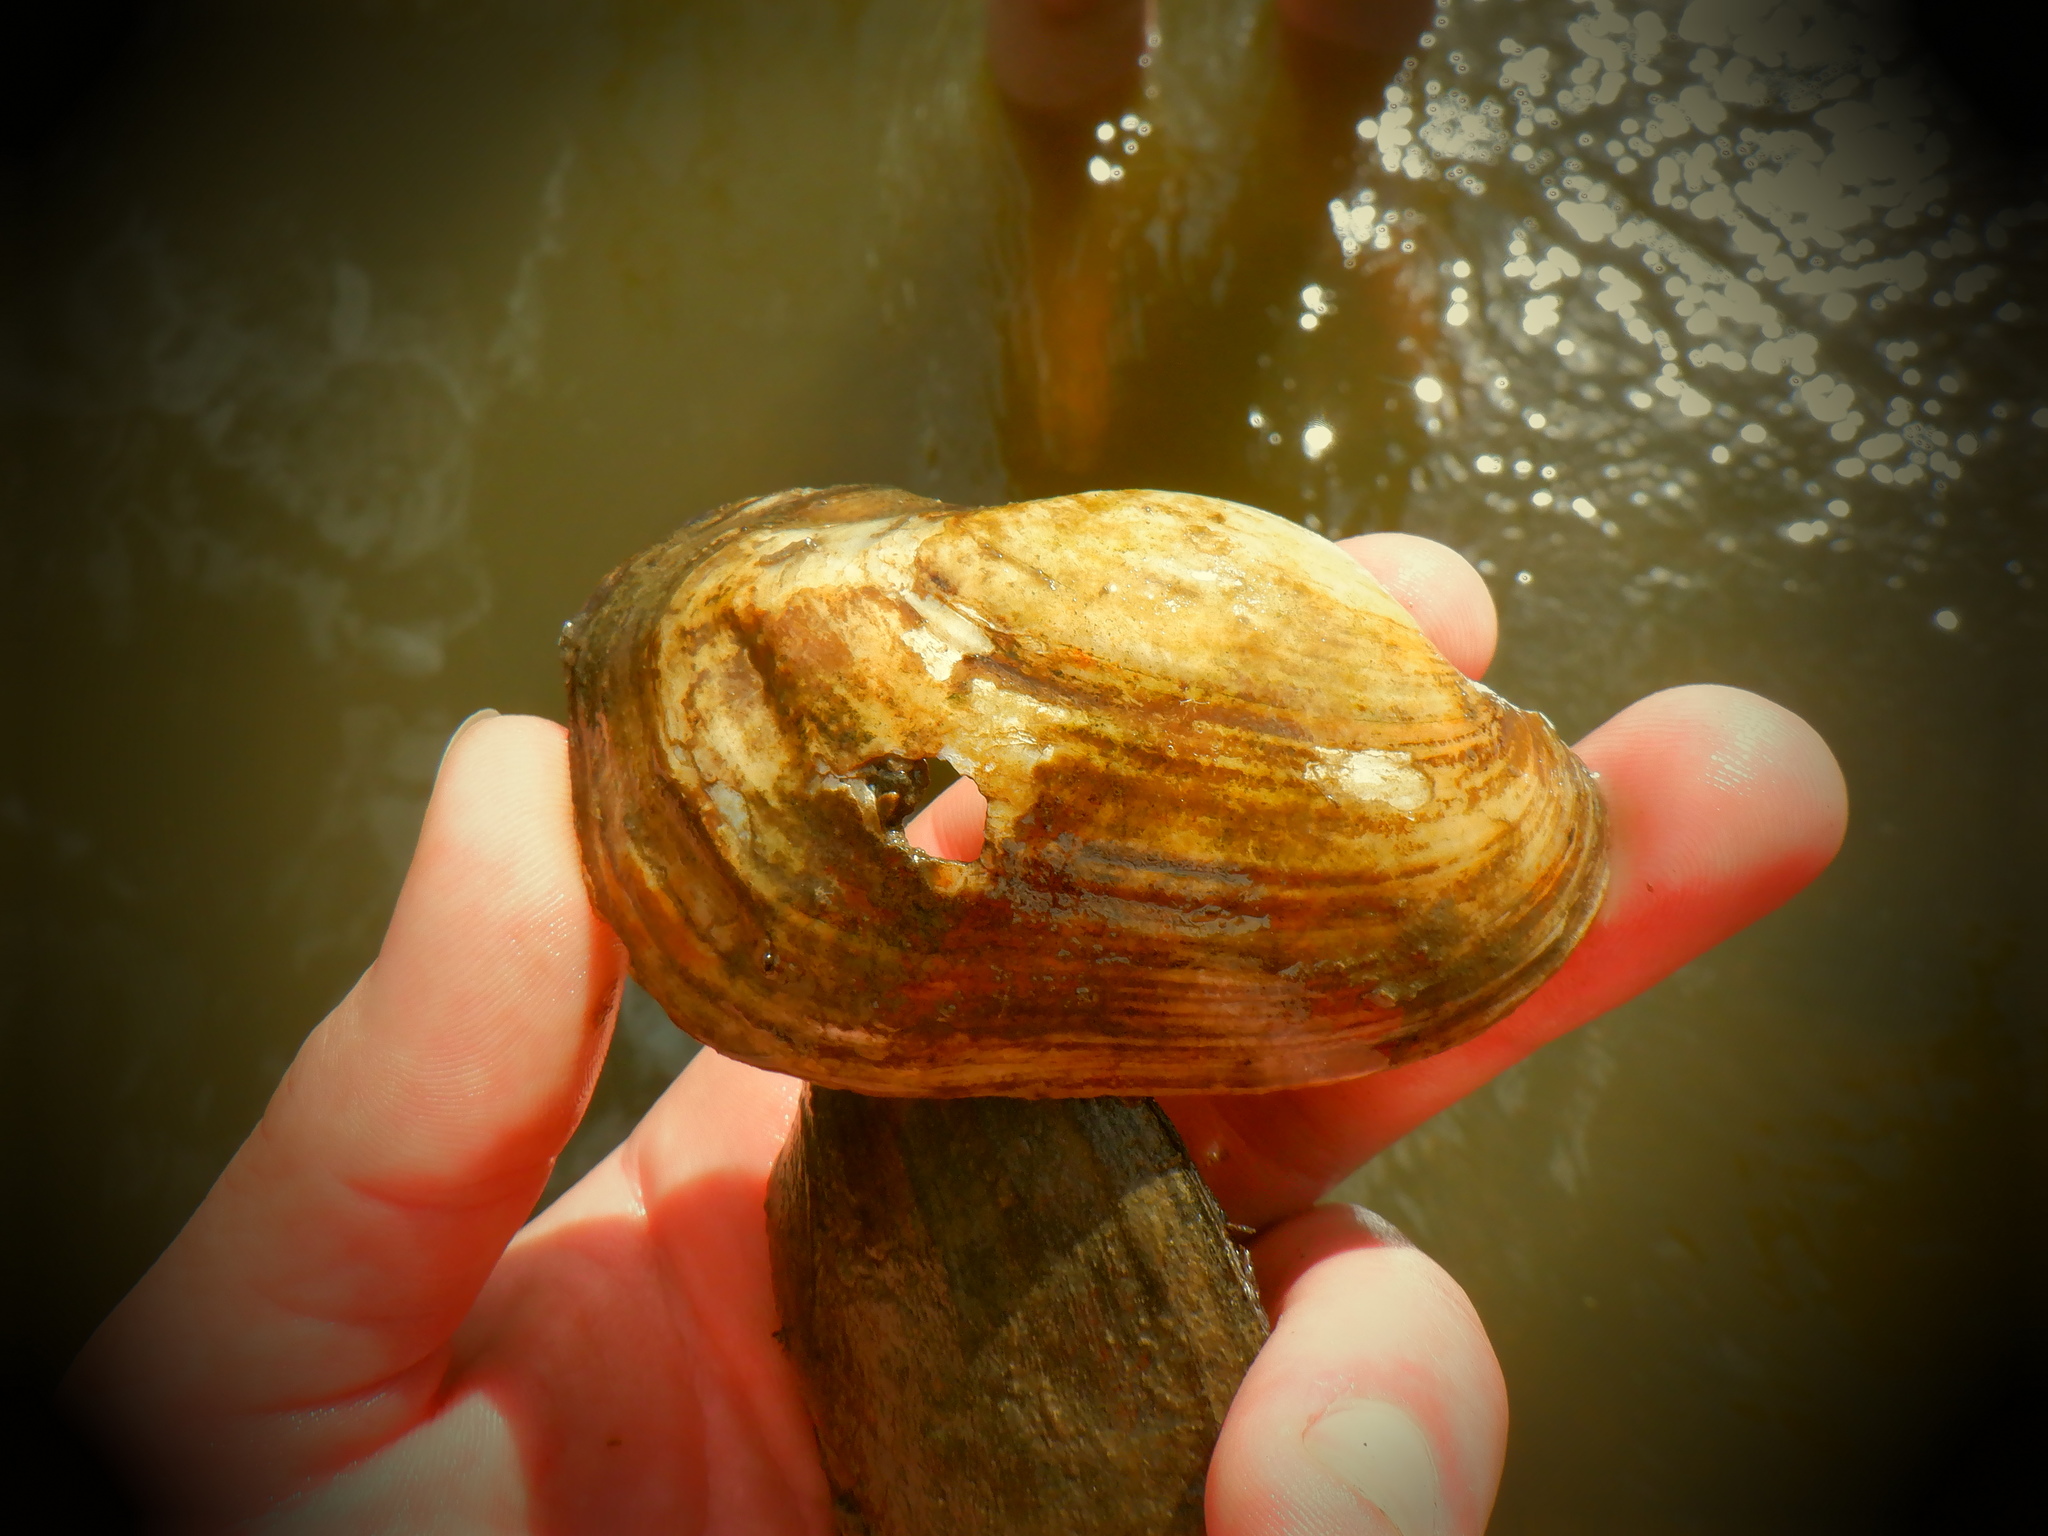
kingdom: Animalia
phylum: Mollusca
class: Bivalvia
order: Unionida
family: Unionidae
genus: Lampsilis
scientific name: Lampsilis siliquoidea
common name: Fatmucket
